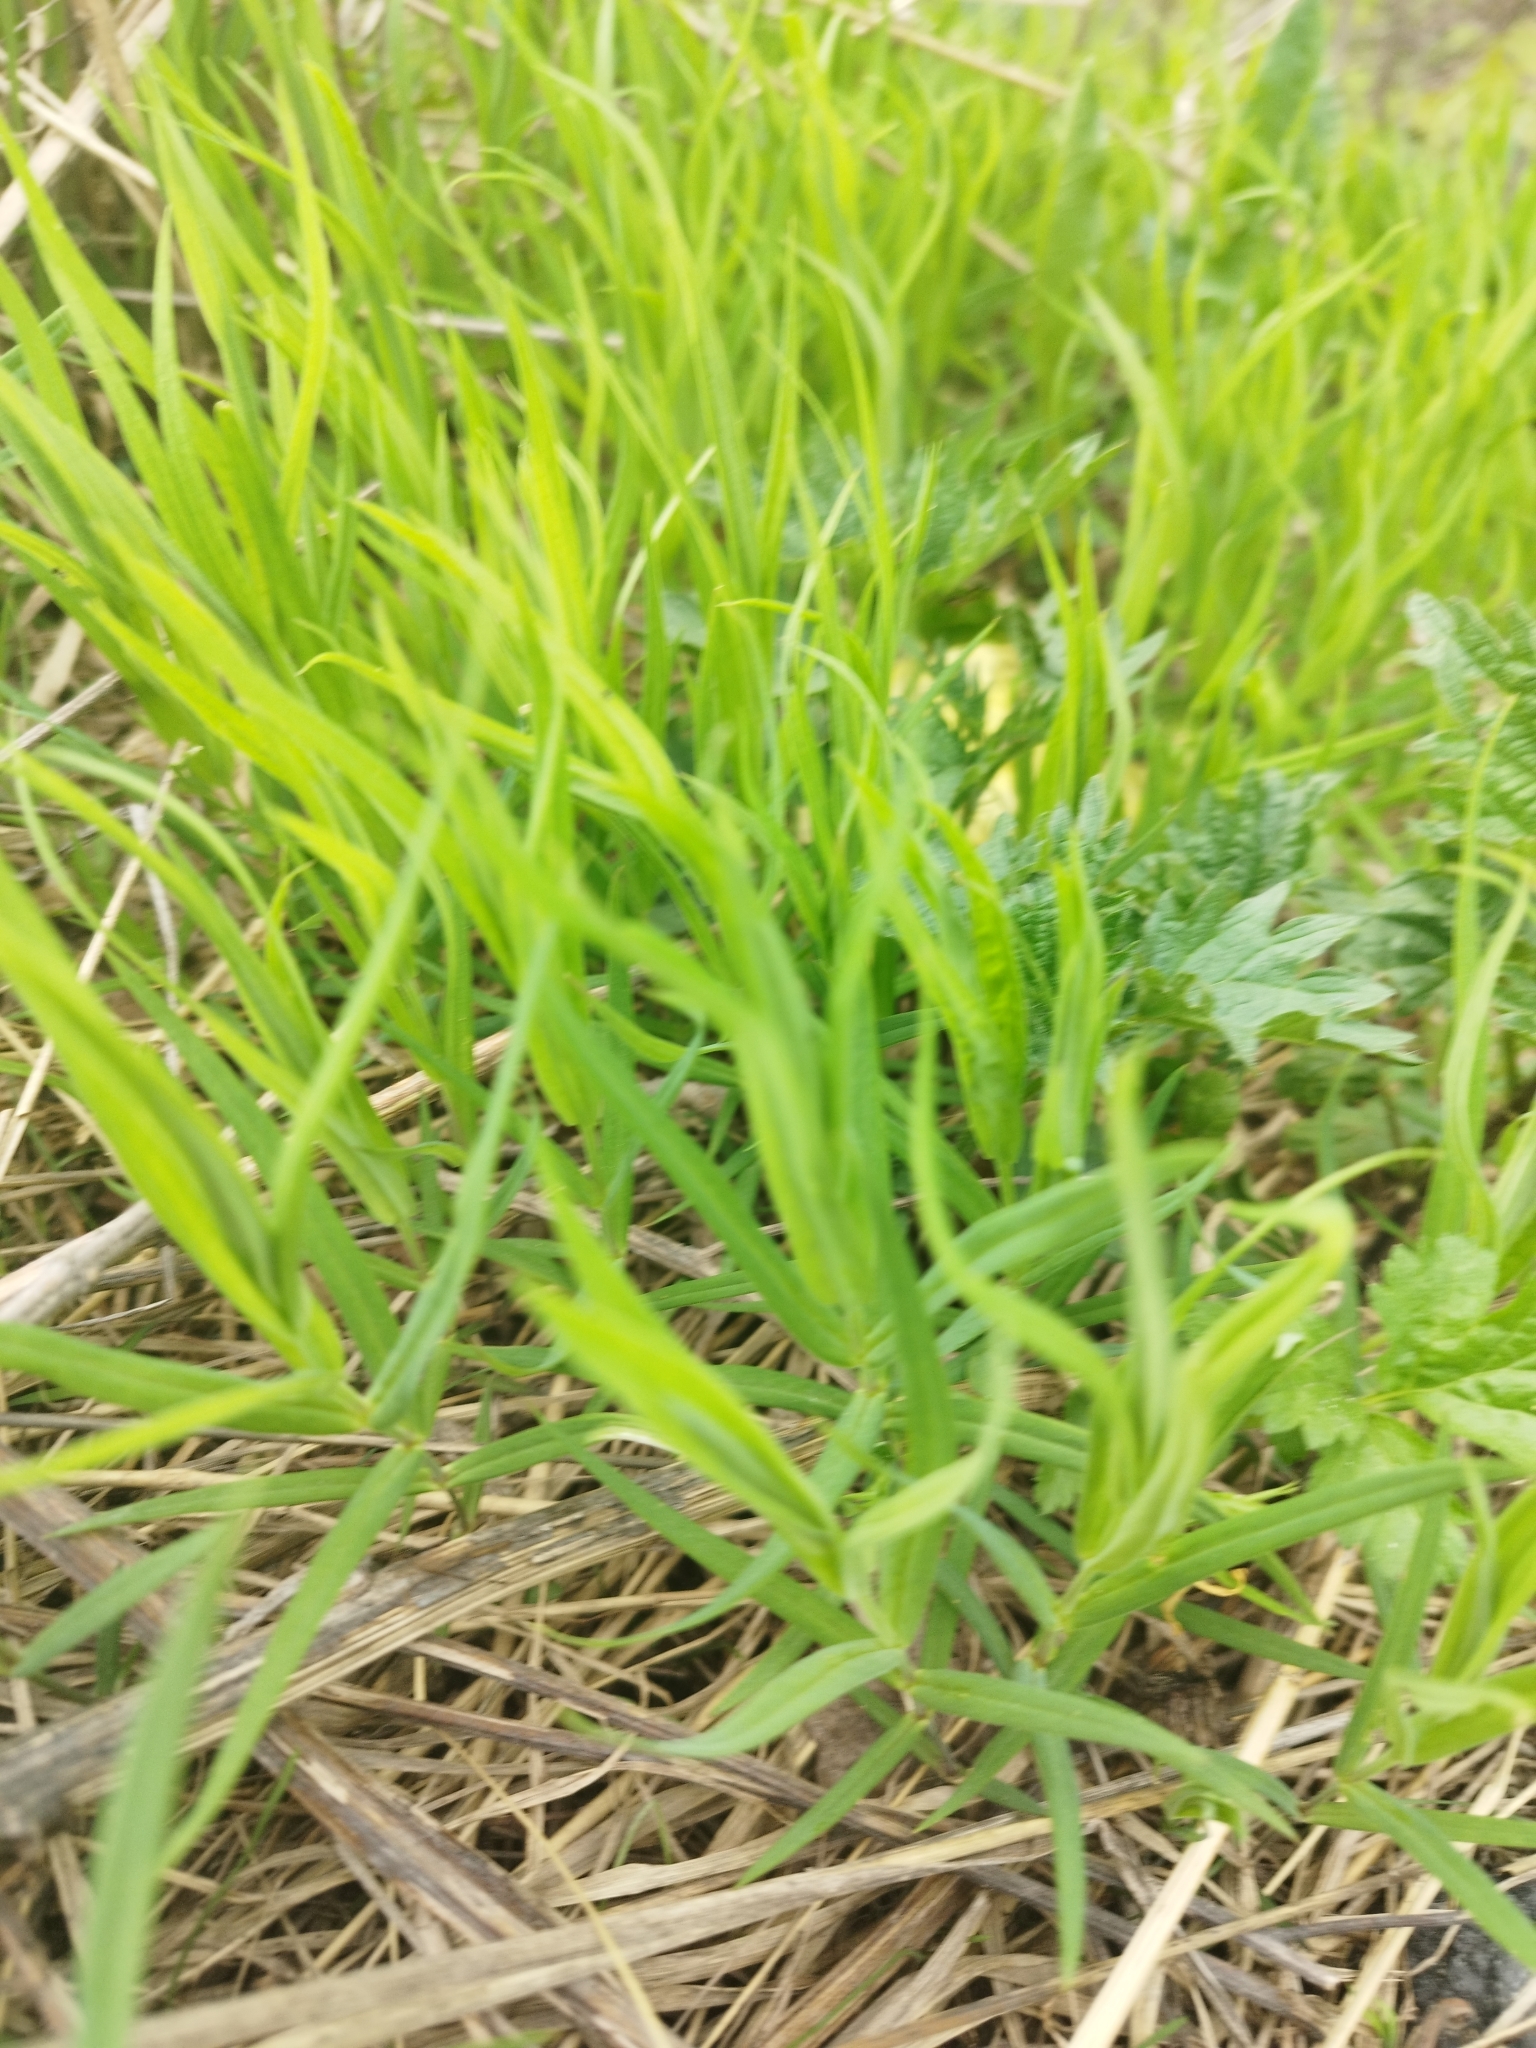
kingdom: Plantae
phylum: Tracheophyta
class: Magnoliopsida
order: Caryophyllales
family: Caryophyllaceae
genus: Rabelera
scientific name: Rabelera holostea
